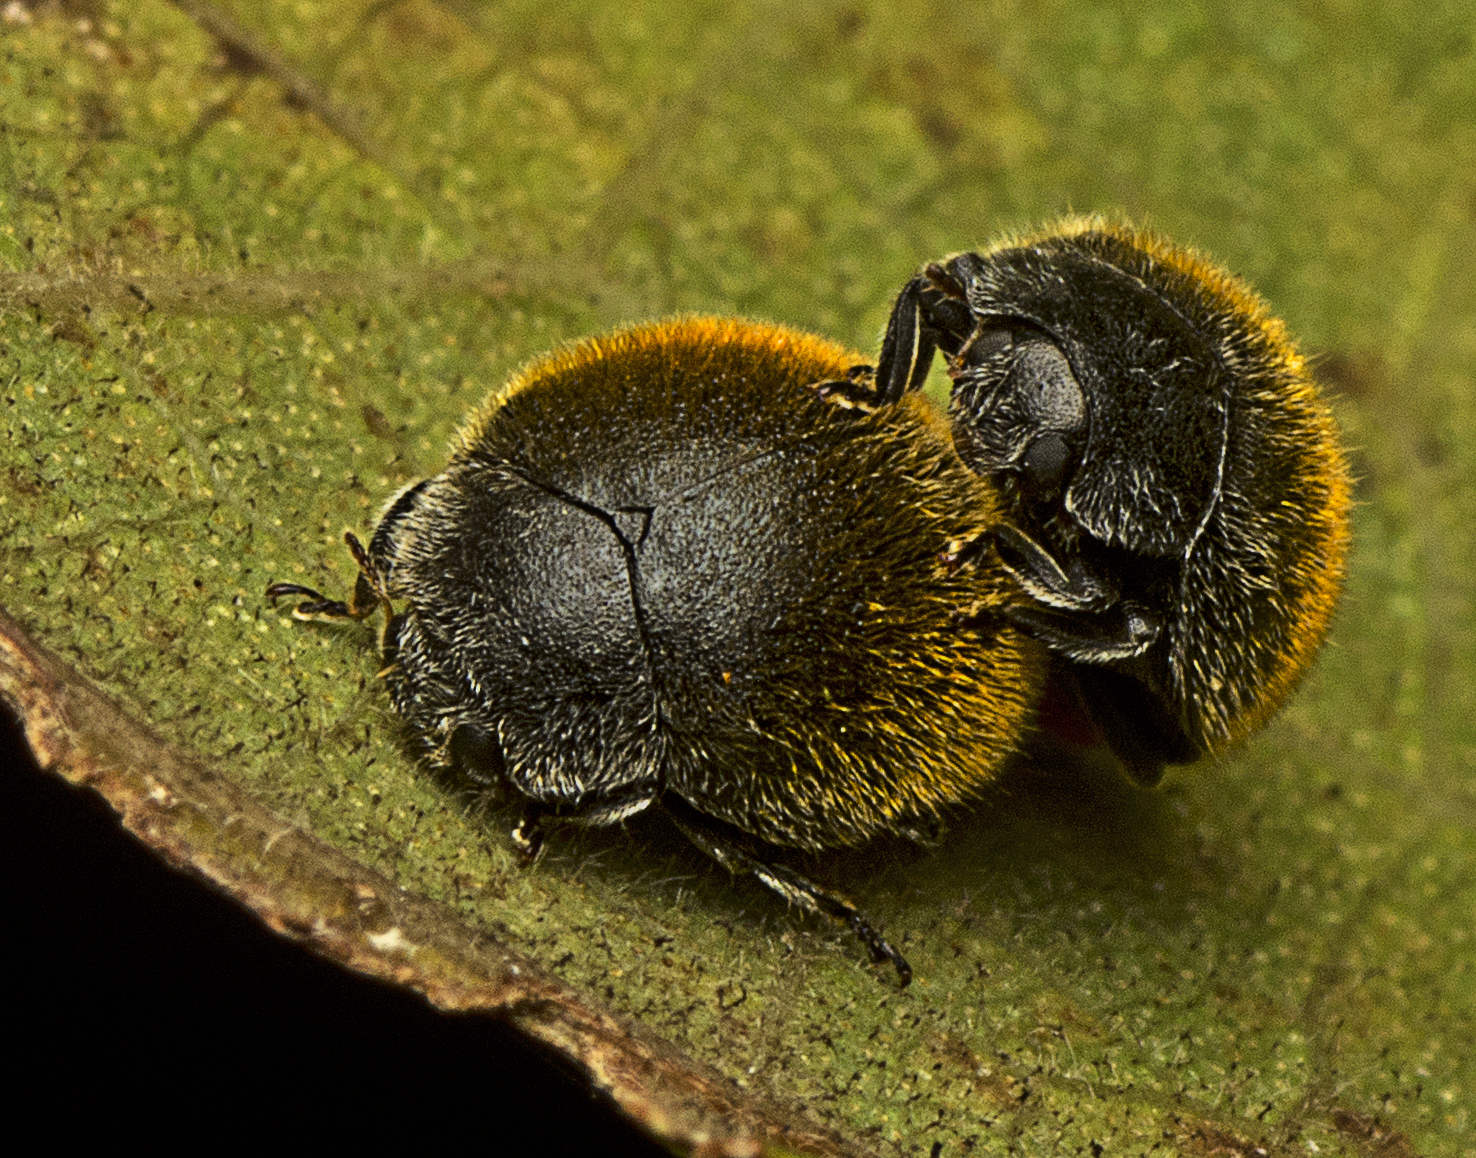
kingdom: Animalia
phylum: Arthropoda
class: Insecta
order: Coleoptera
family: Coccinellidae
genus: Erithionyx
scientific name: Erithionyx
